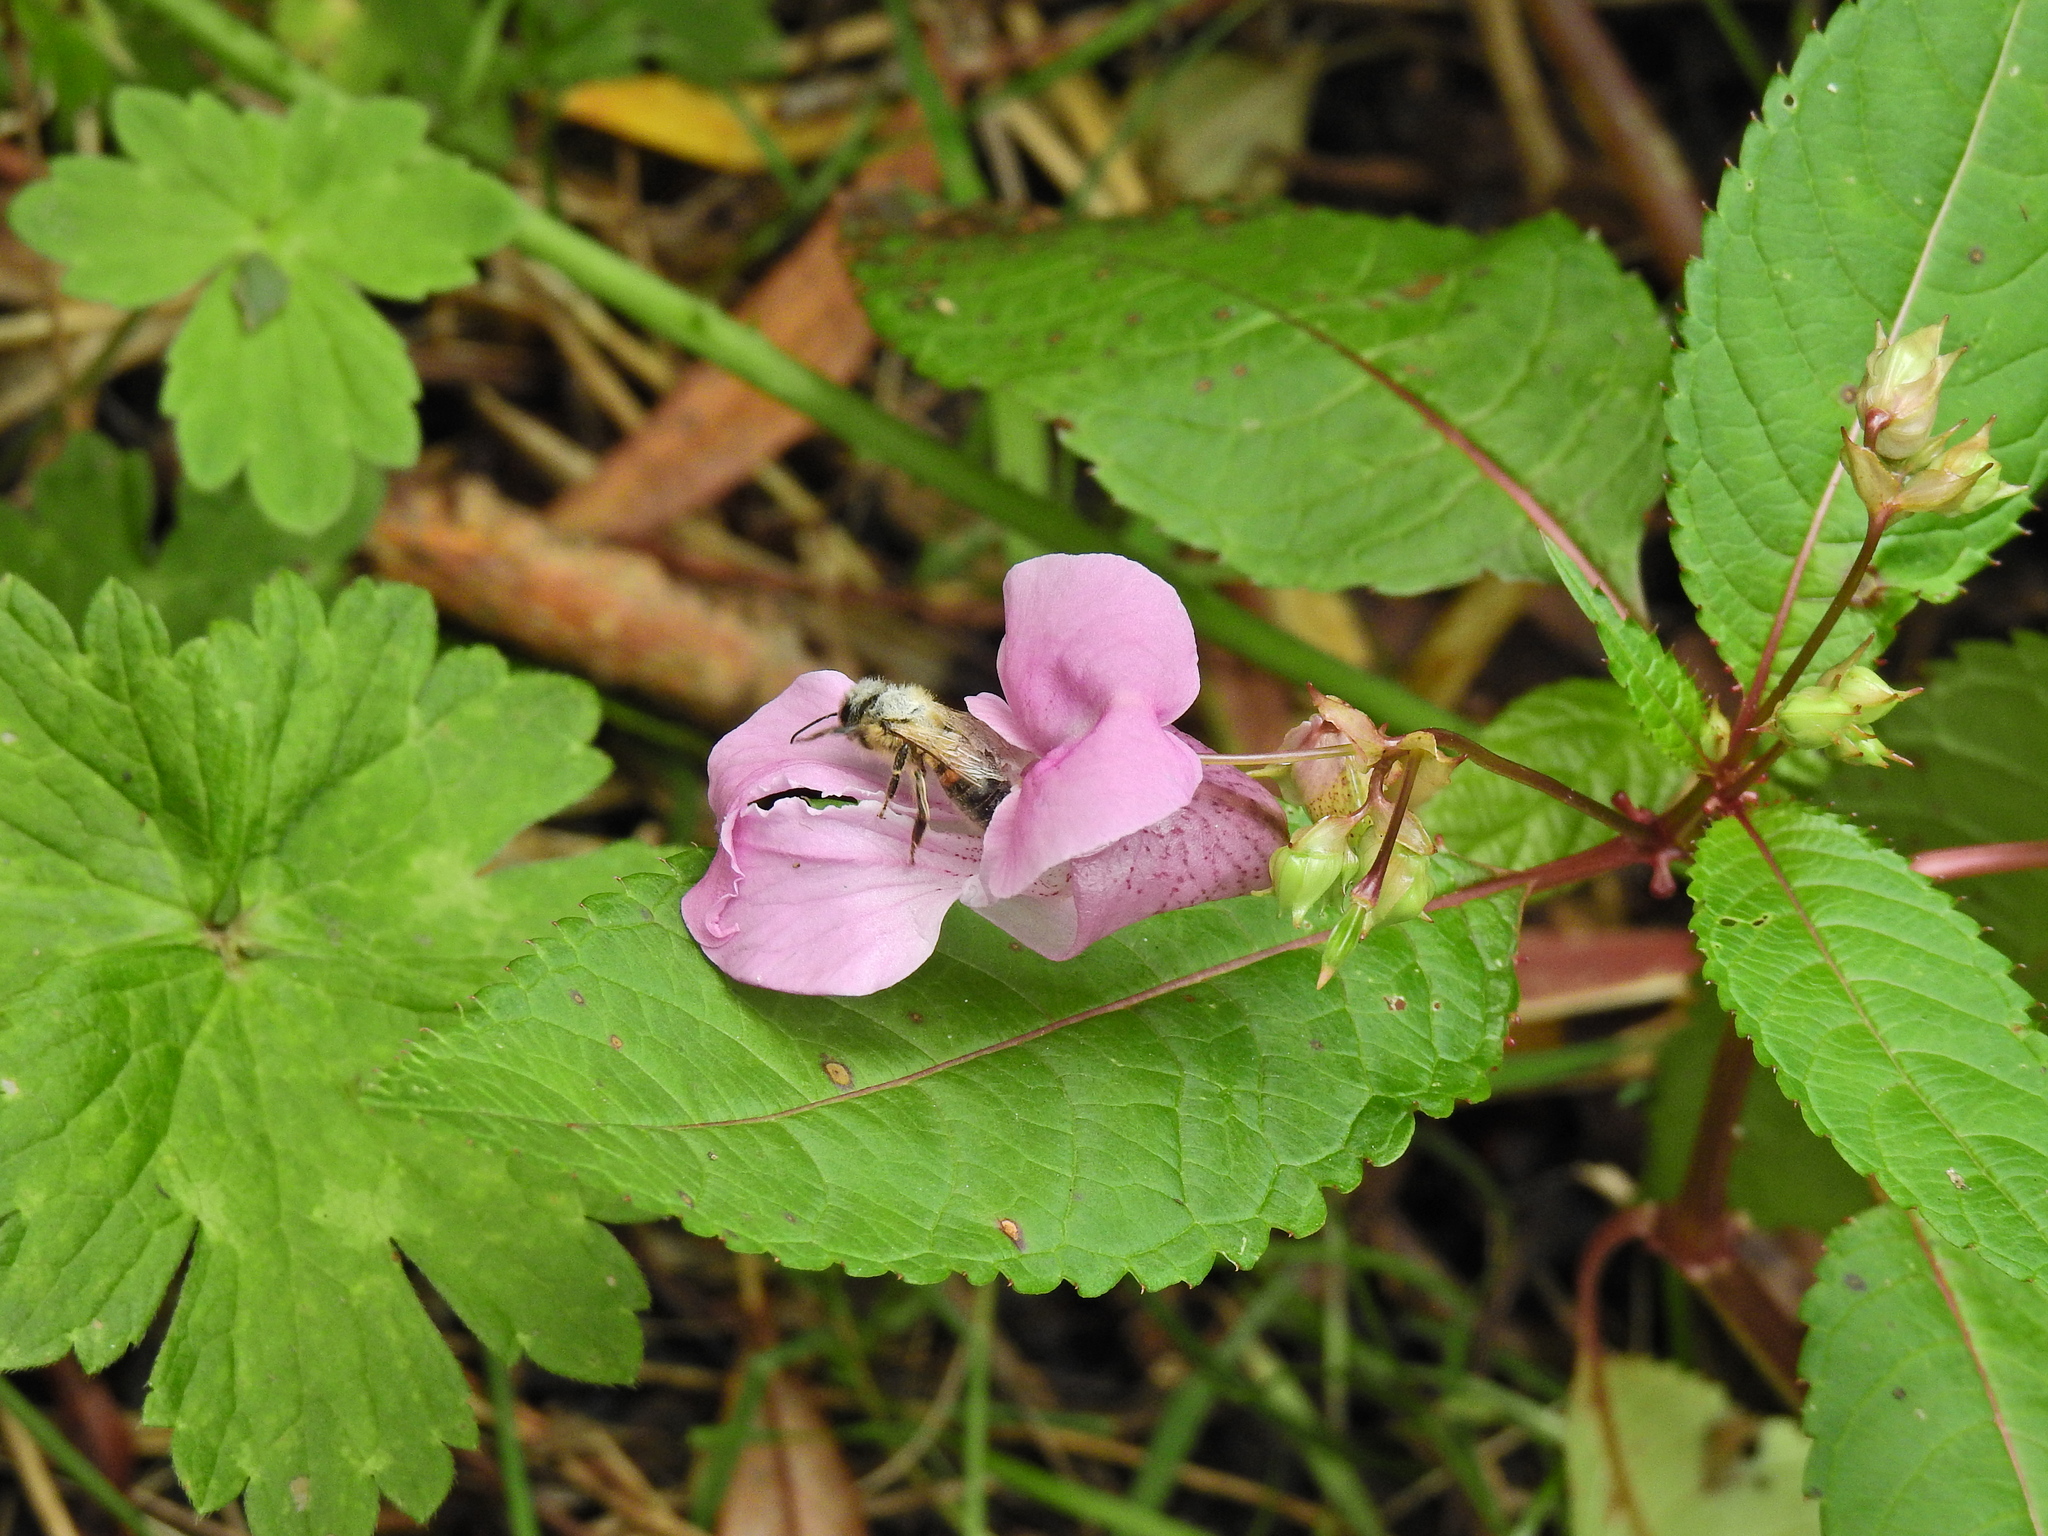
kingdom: Animalia
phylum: Arthropoda
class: Insecta
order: Hymenoptera
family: Apidae
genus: Apis
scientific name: Apis mellifera
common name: Honey bee
